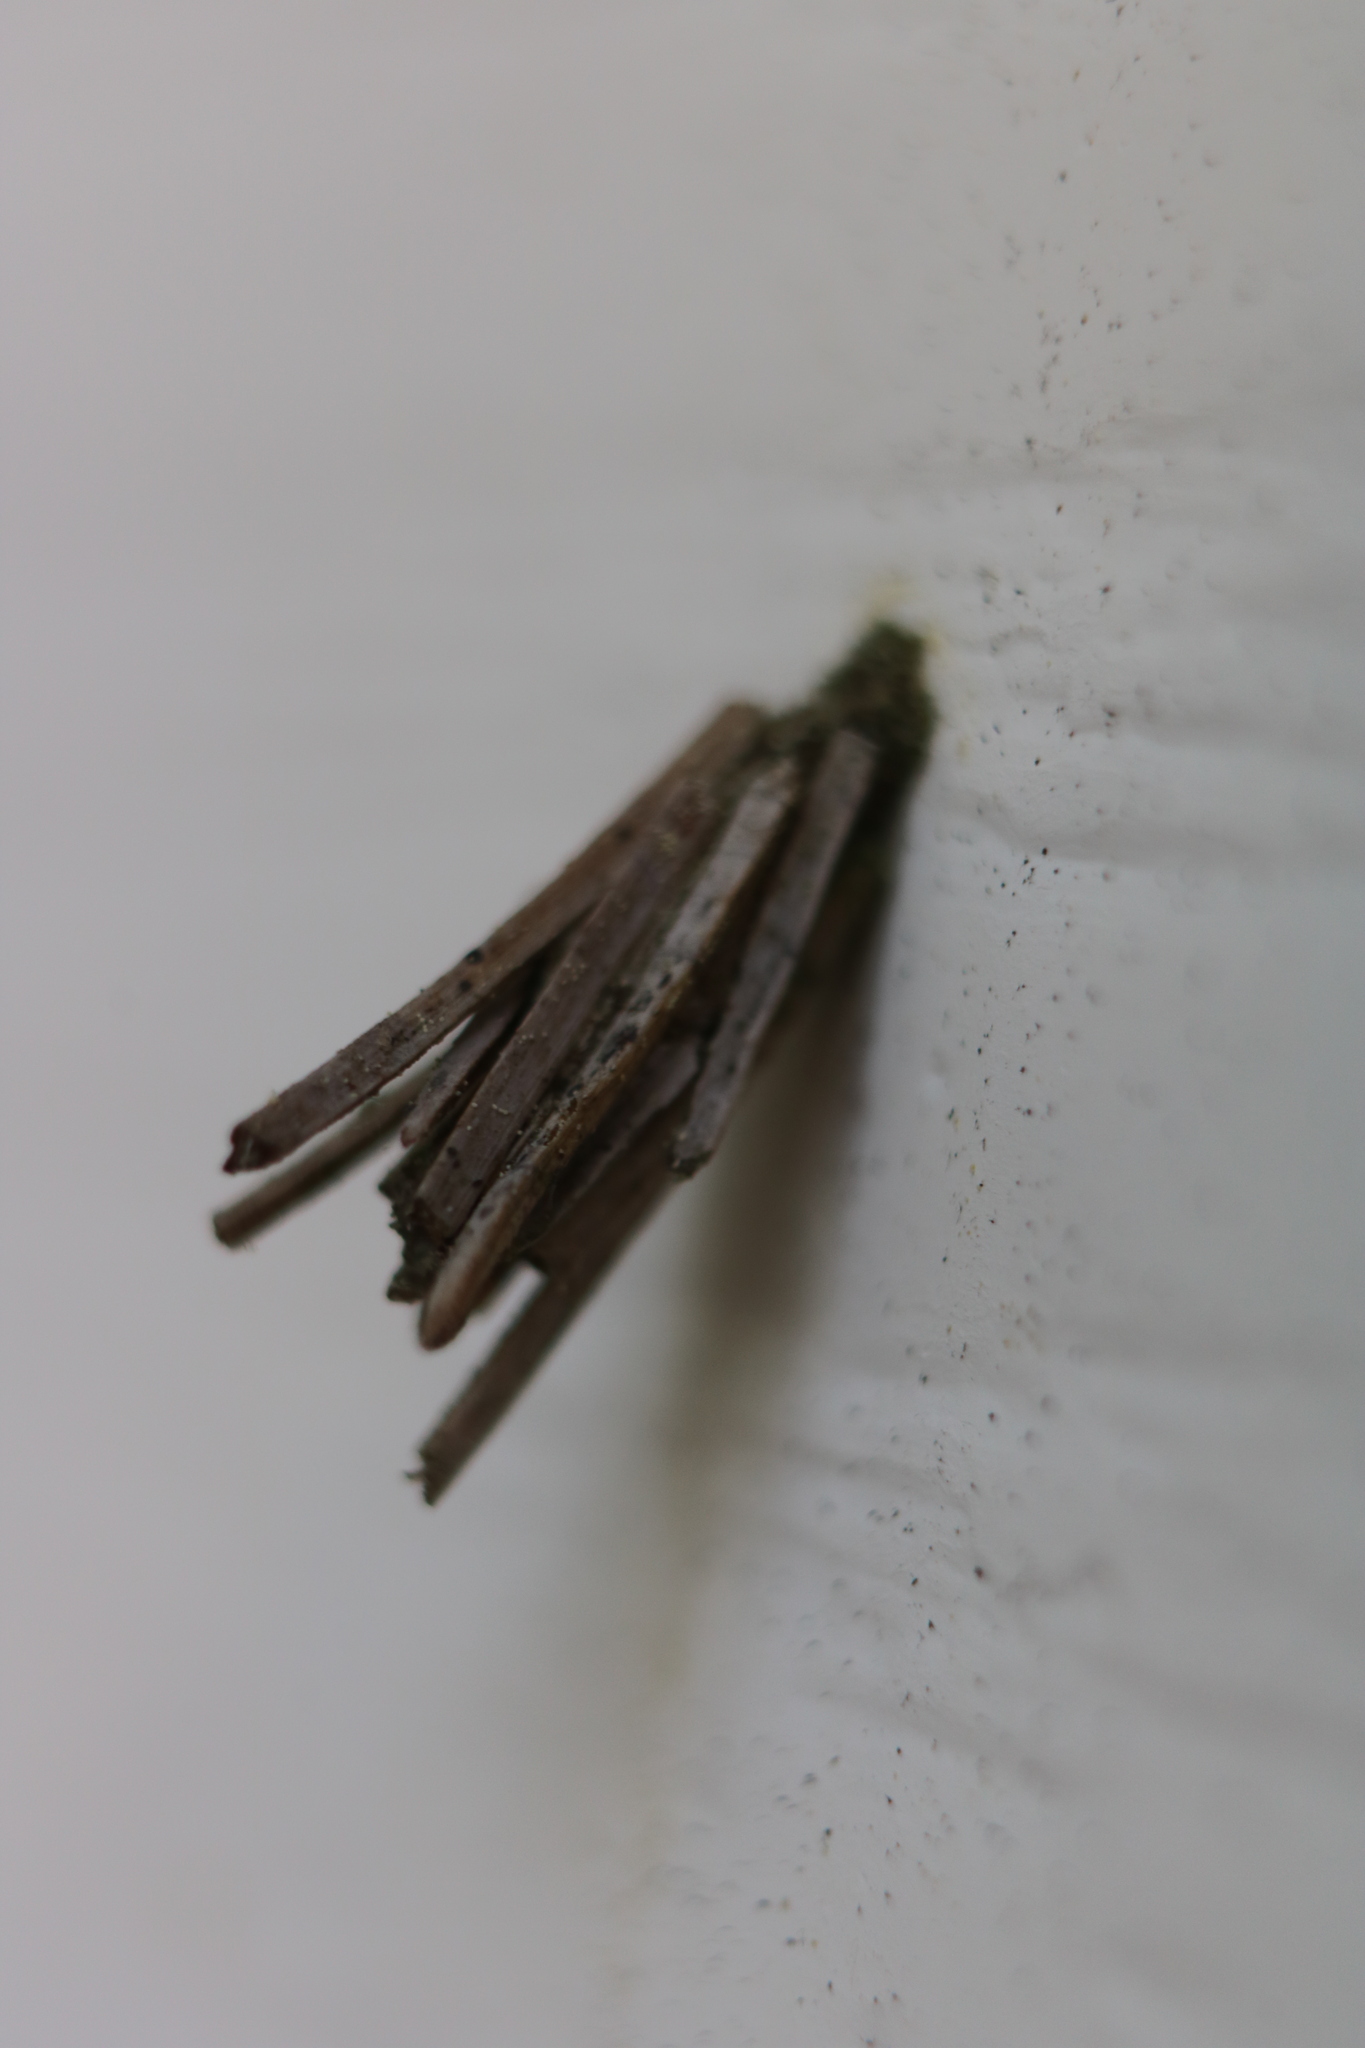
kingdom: Animalia
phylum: Arthropoda
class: Insecta
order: Lepidoptera
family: Psychidae
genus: Psyche
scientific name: Psyche casta
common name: Common sweep
